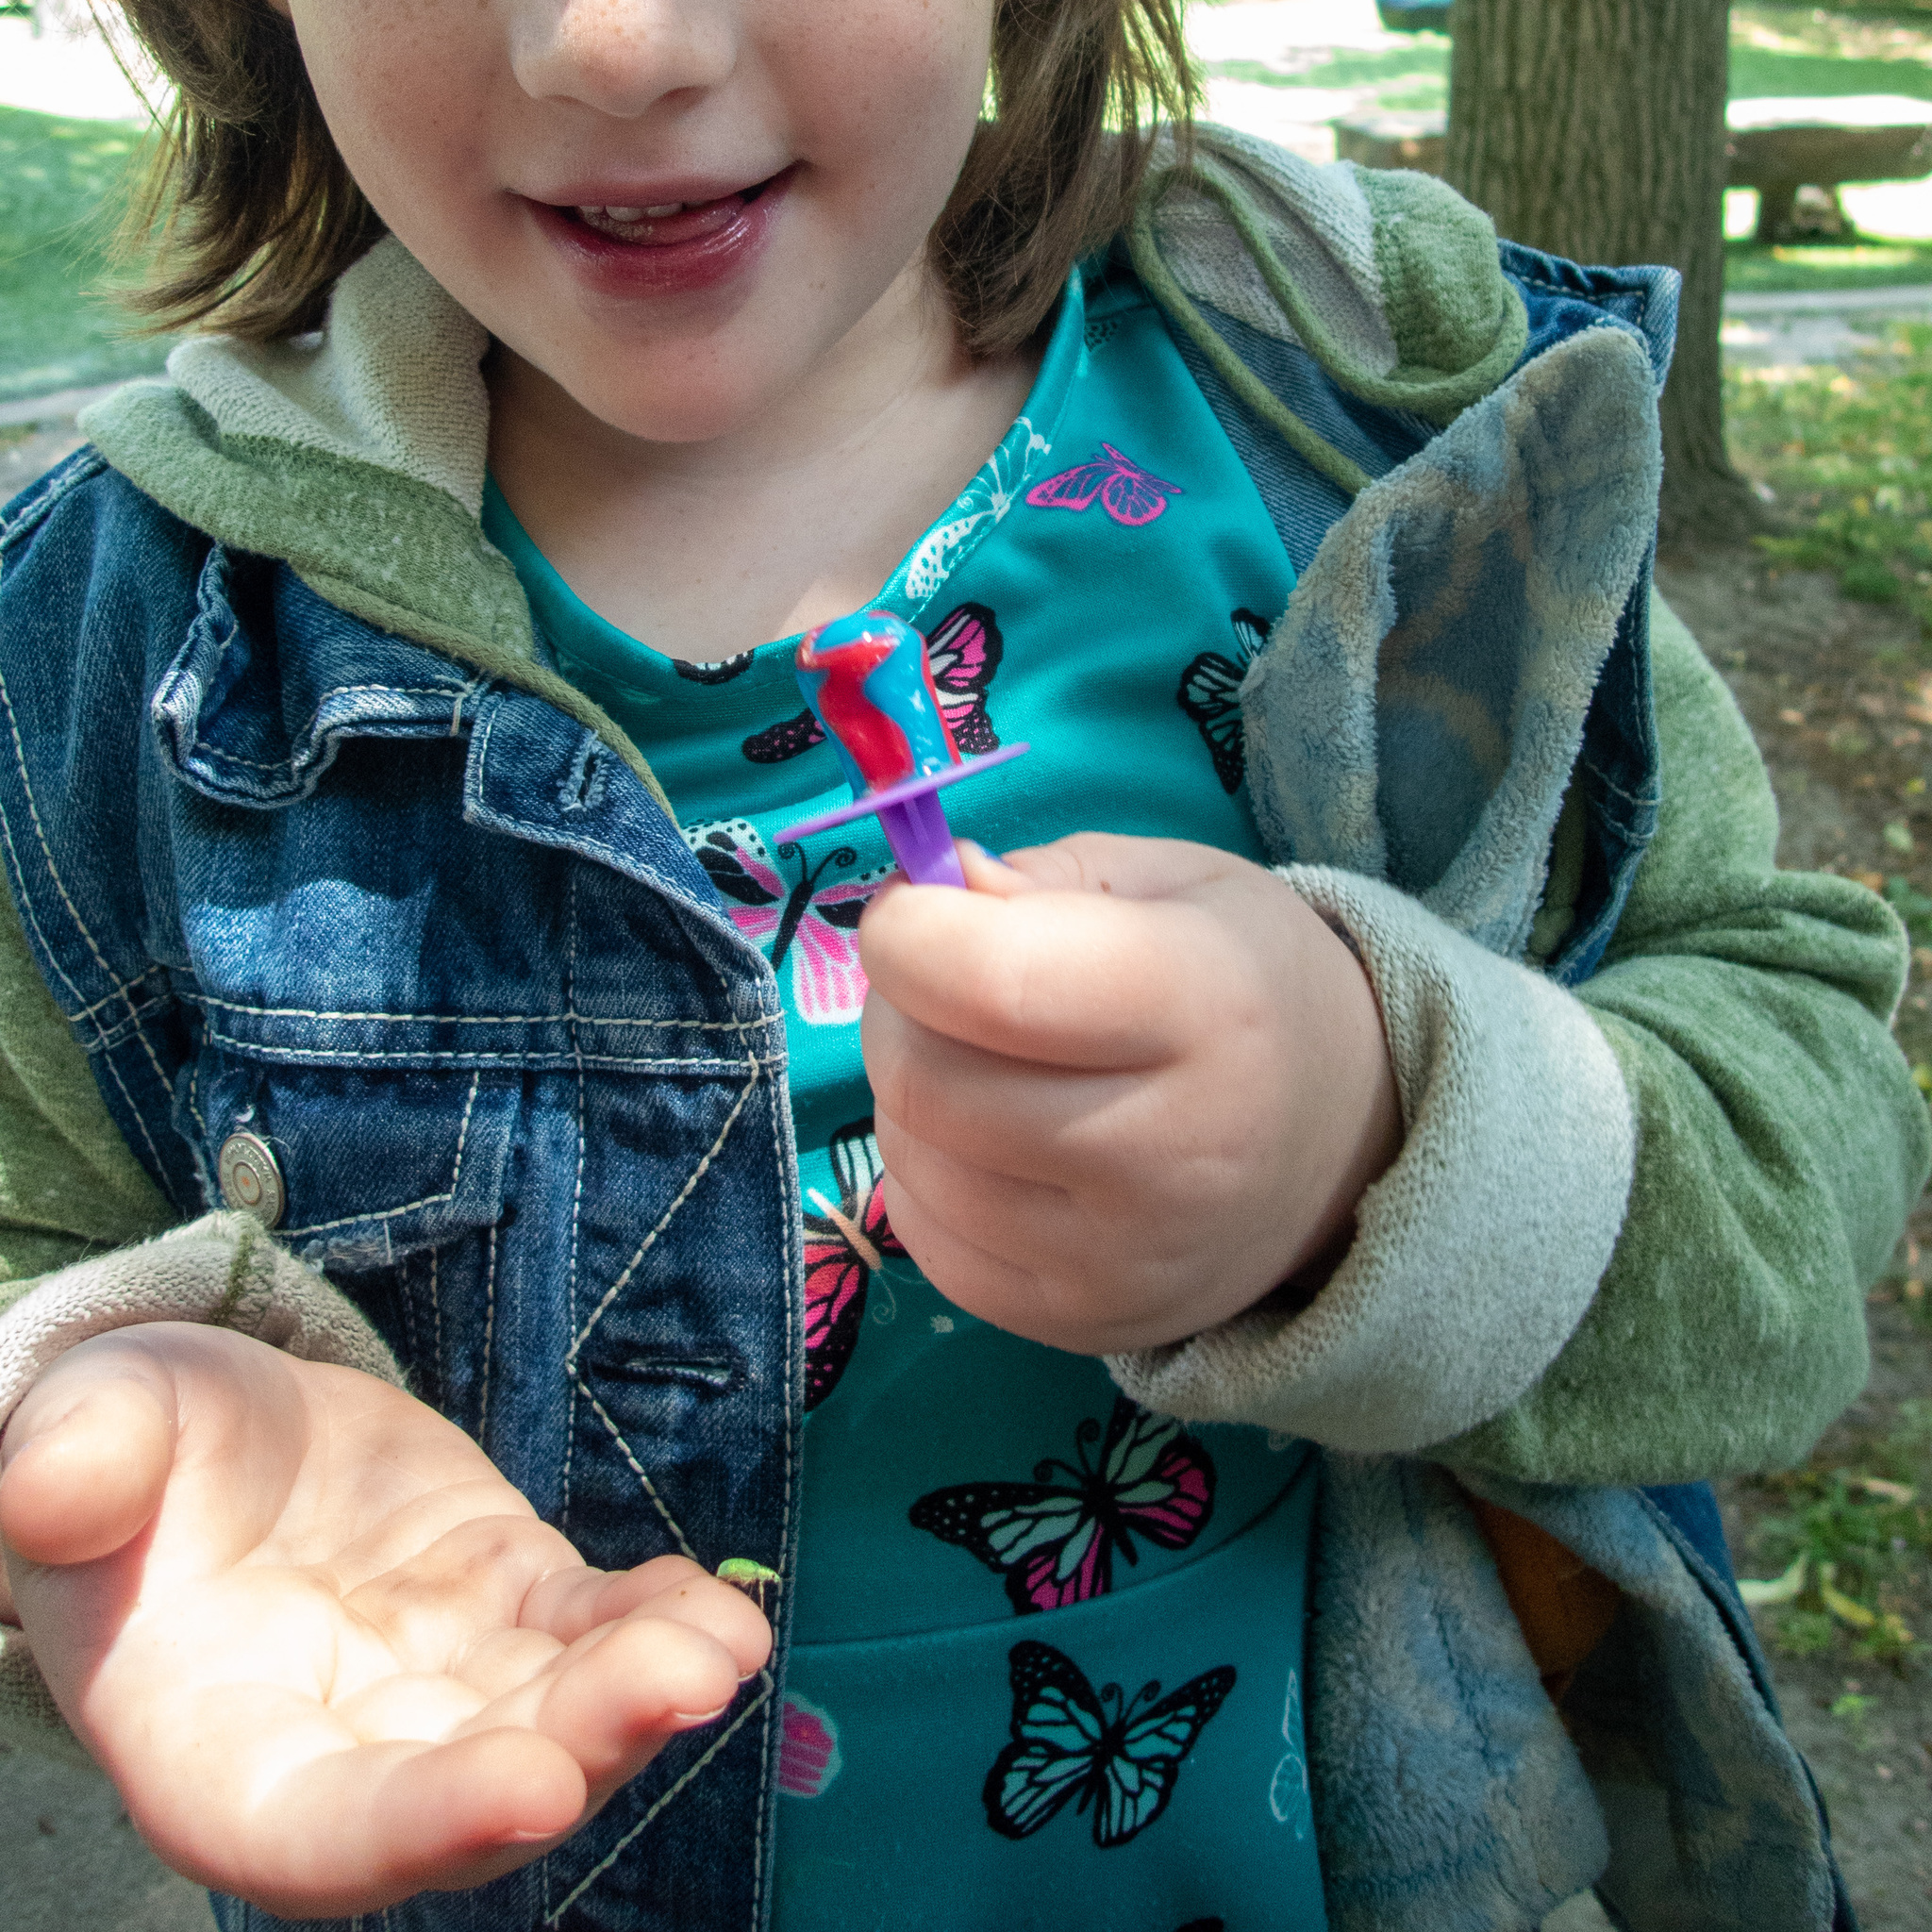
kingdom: Animalia
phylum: Arthropoda
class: Insecta
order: Coleoptera
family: Curculionidae
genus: Polydrusus
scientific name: Polydrusus formosus
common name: Weevil
